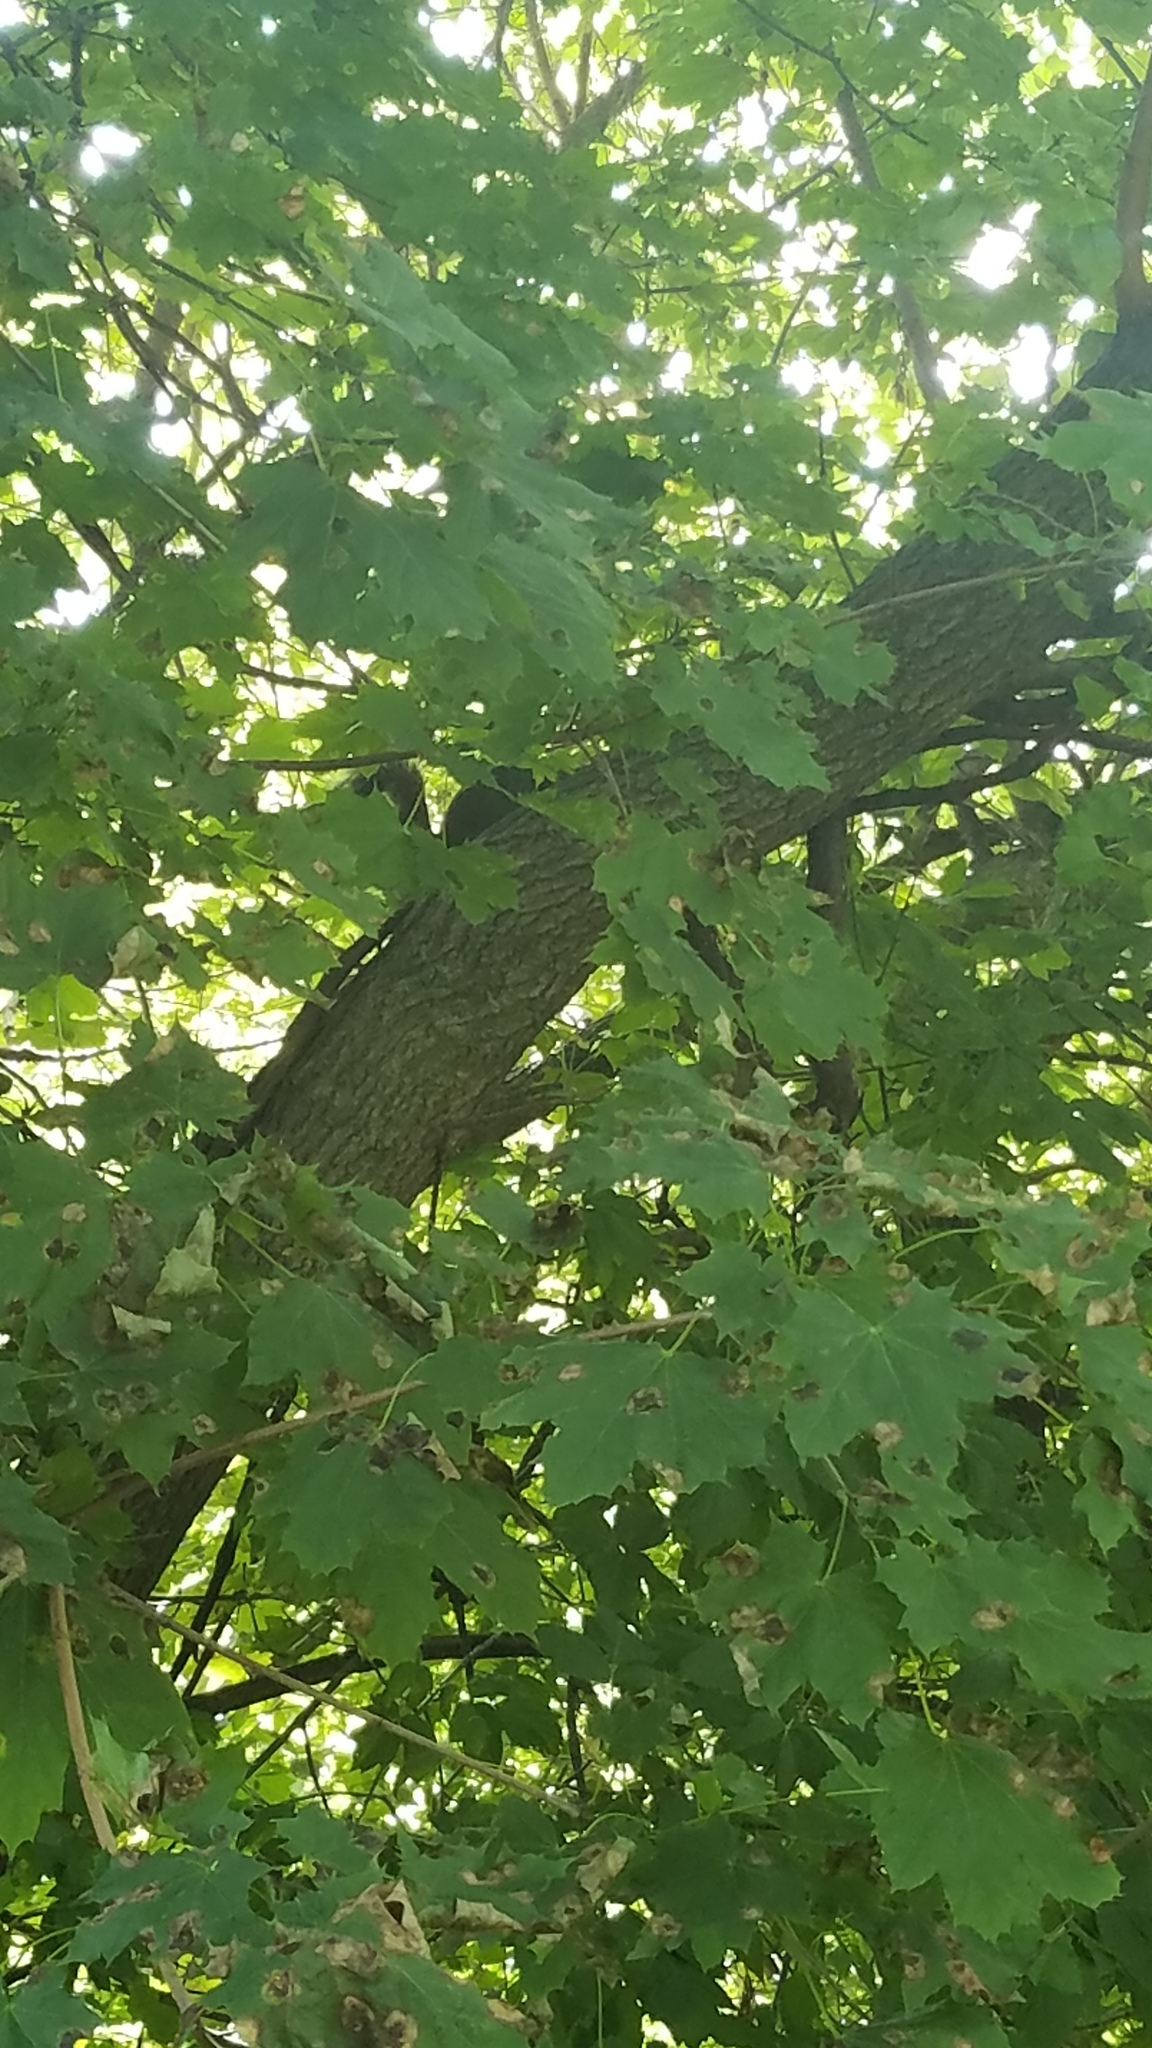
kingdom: Animalia
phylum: Chordata
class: Mammalia
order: Rodentia
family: Sciuridae
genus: Sciurus
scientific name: Sciurus carolinensis
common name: Eastern gray squirrel
